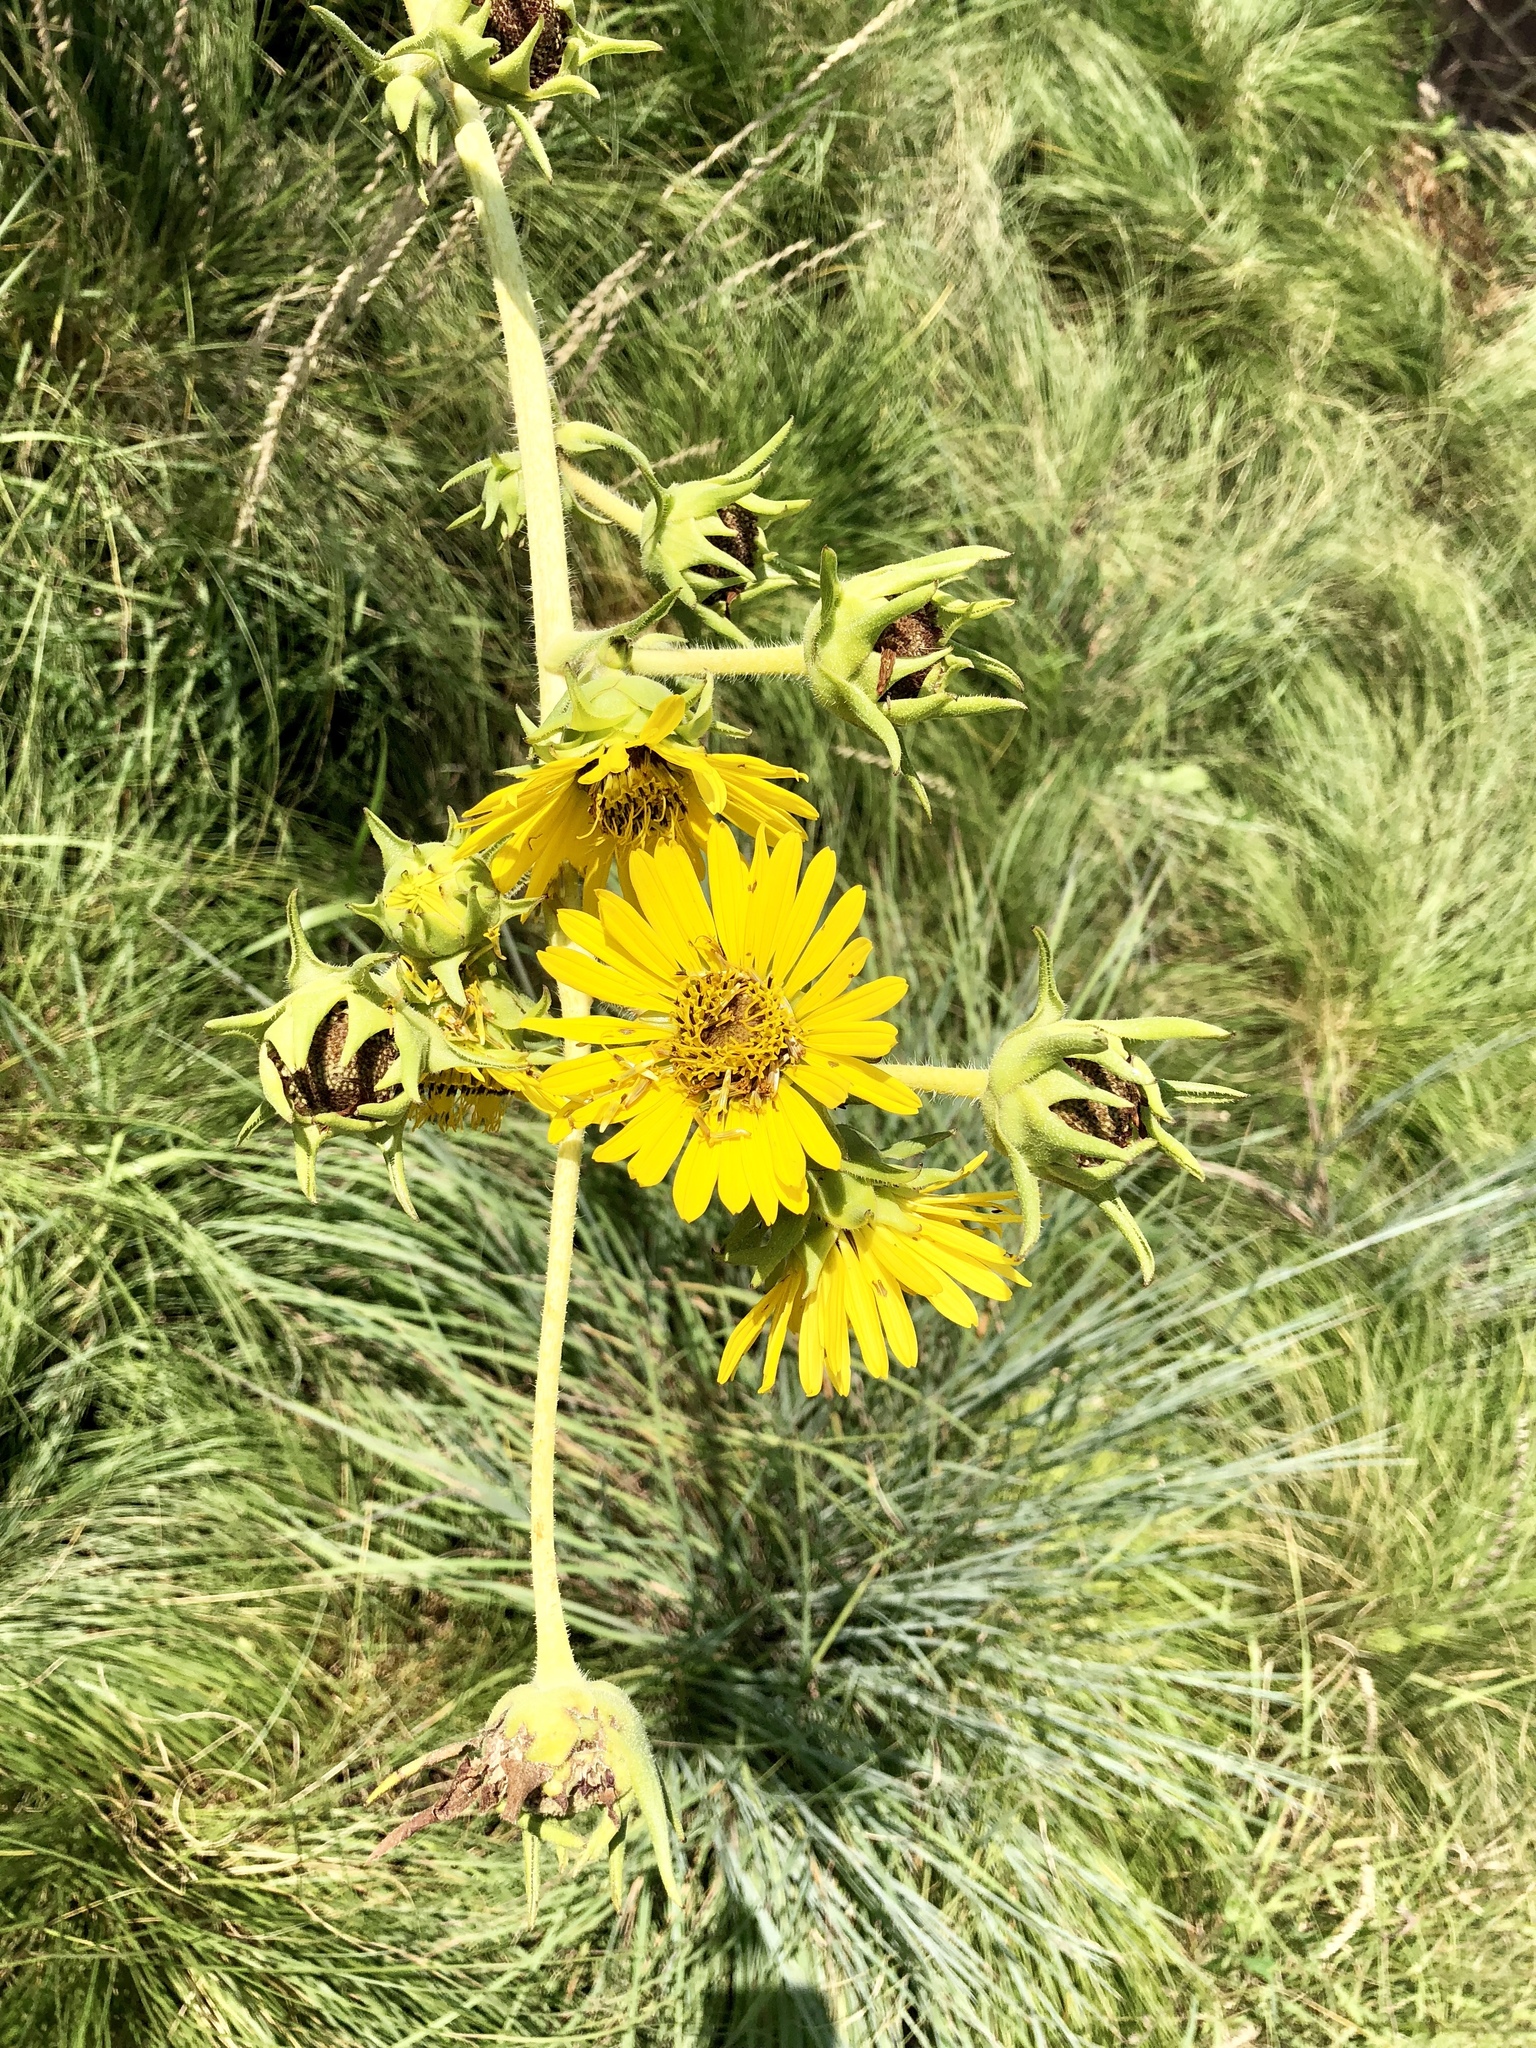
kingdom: Plantae
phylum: Tracheophyta
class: Magnoliopsida
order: Asterales
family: Asteraceae
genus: Silphium
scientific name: Silphium laciniatum
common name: Polarplant
